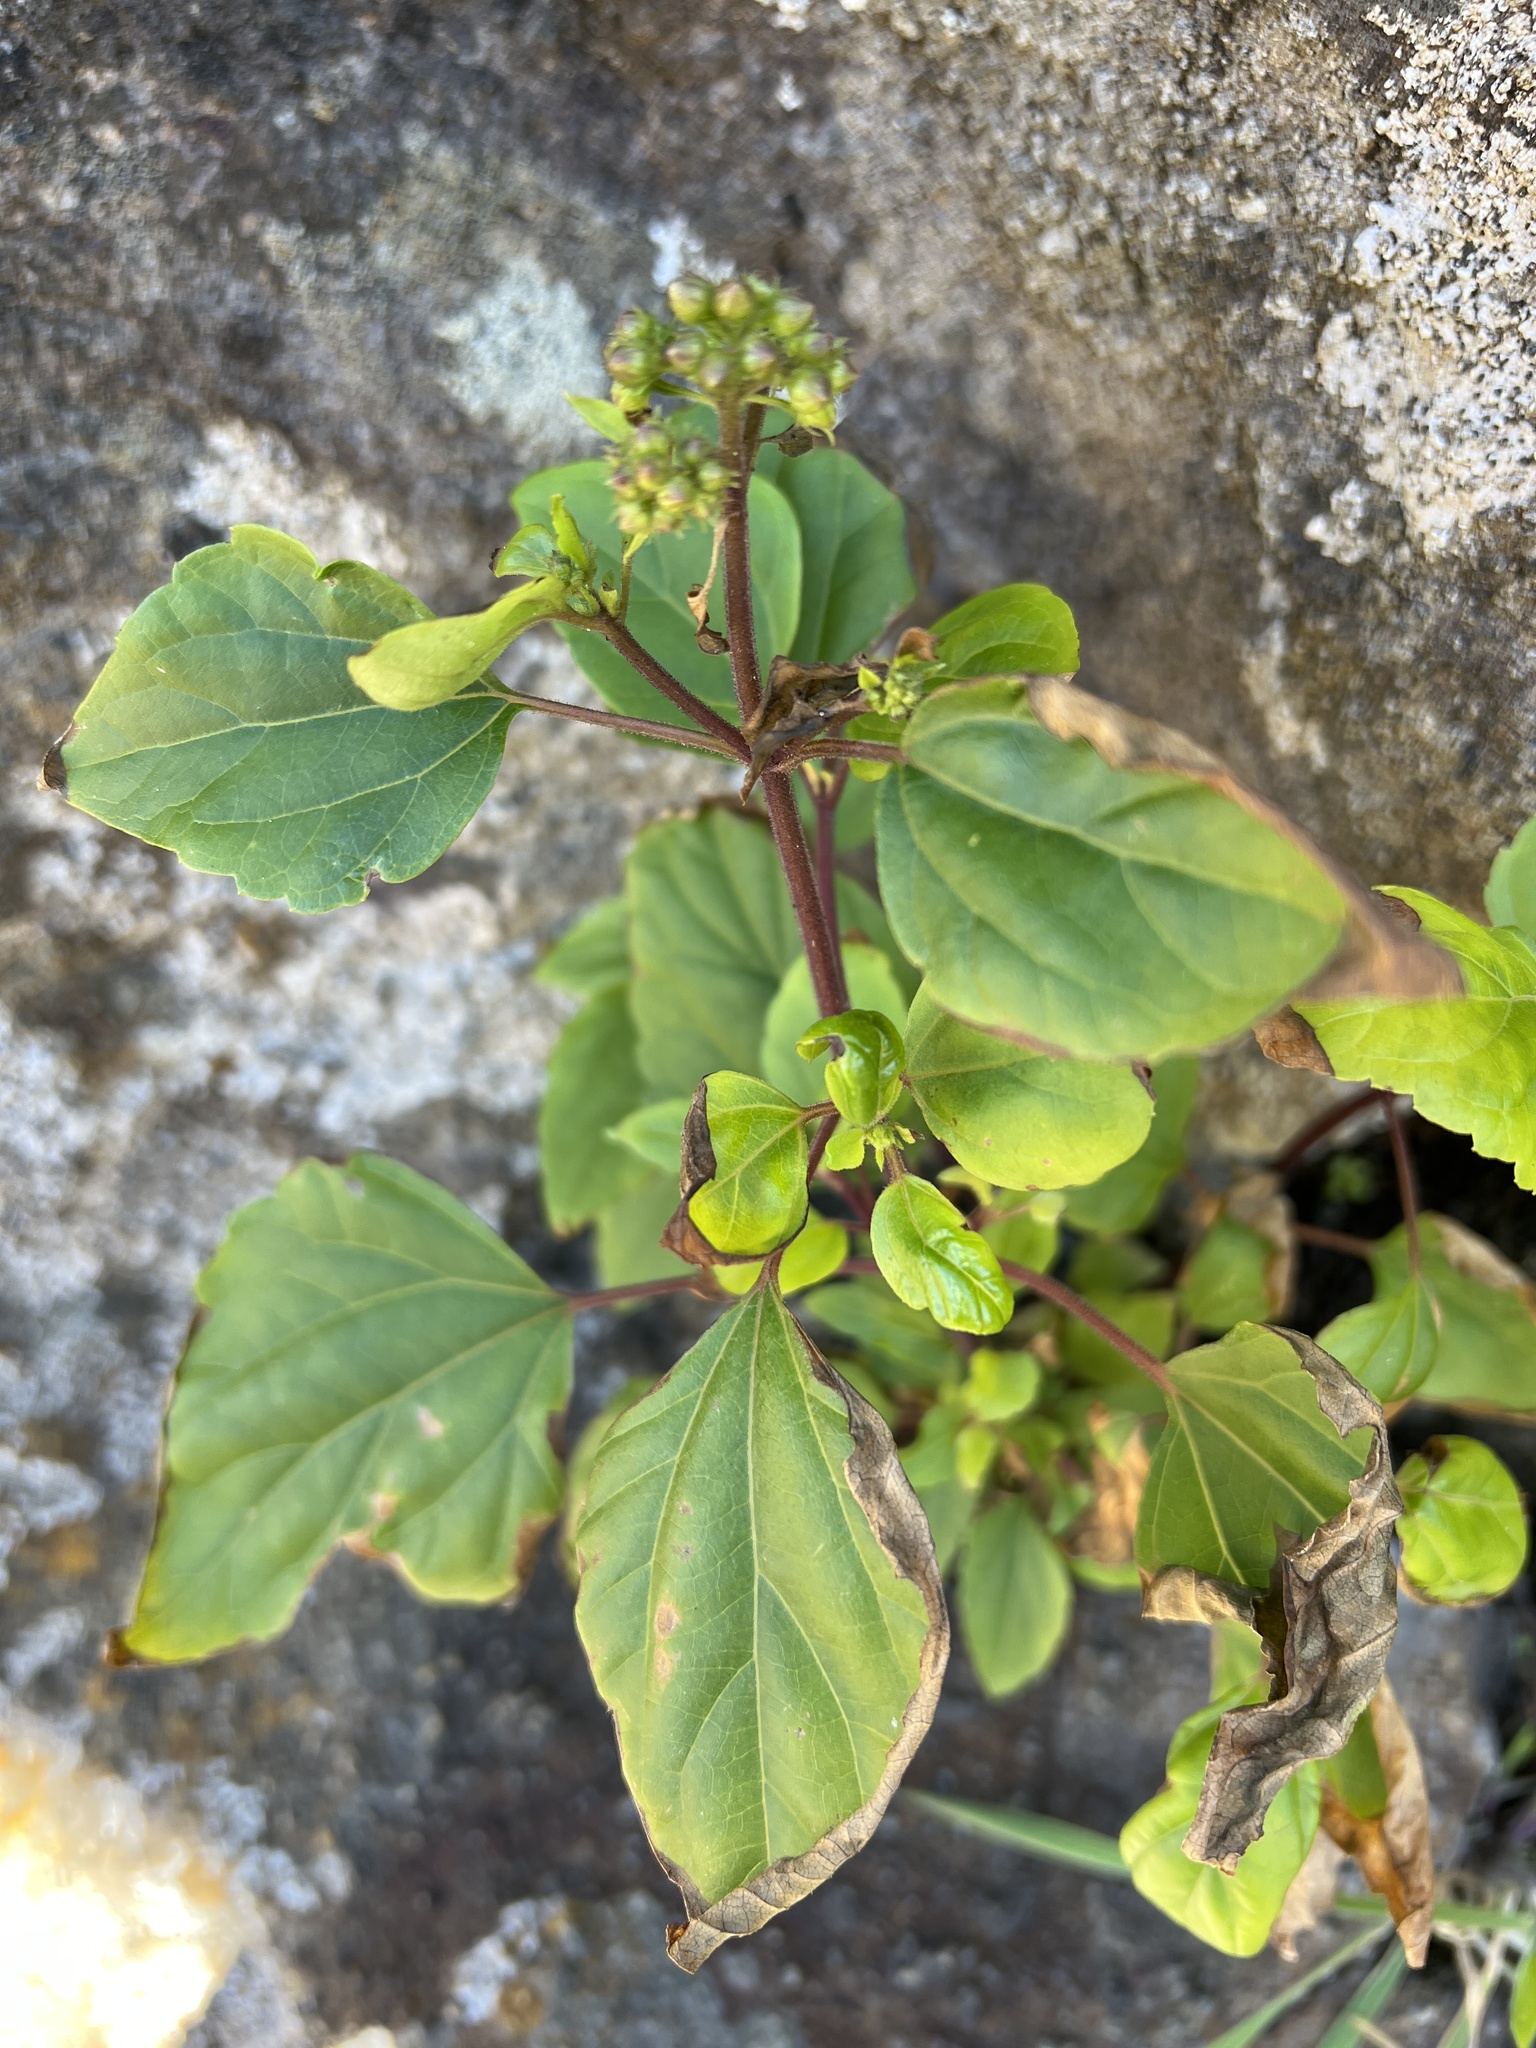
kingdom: Plantae
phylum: Tracheophyta
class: Magnoliopsida
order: Asterales
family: Asteraceae
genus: Ageratina
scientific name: Ageratina adenophora
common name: Sticky snakeroot
